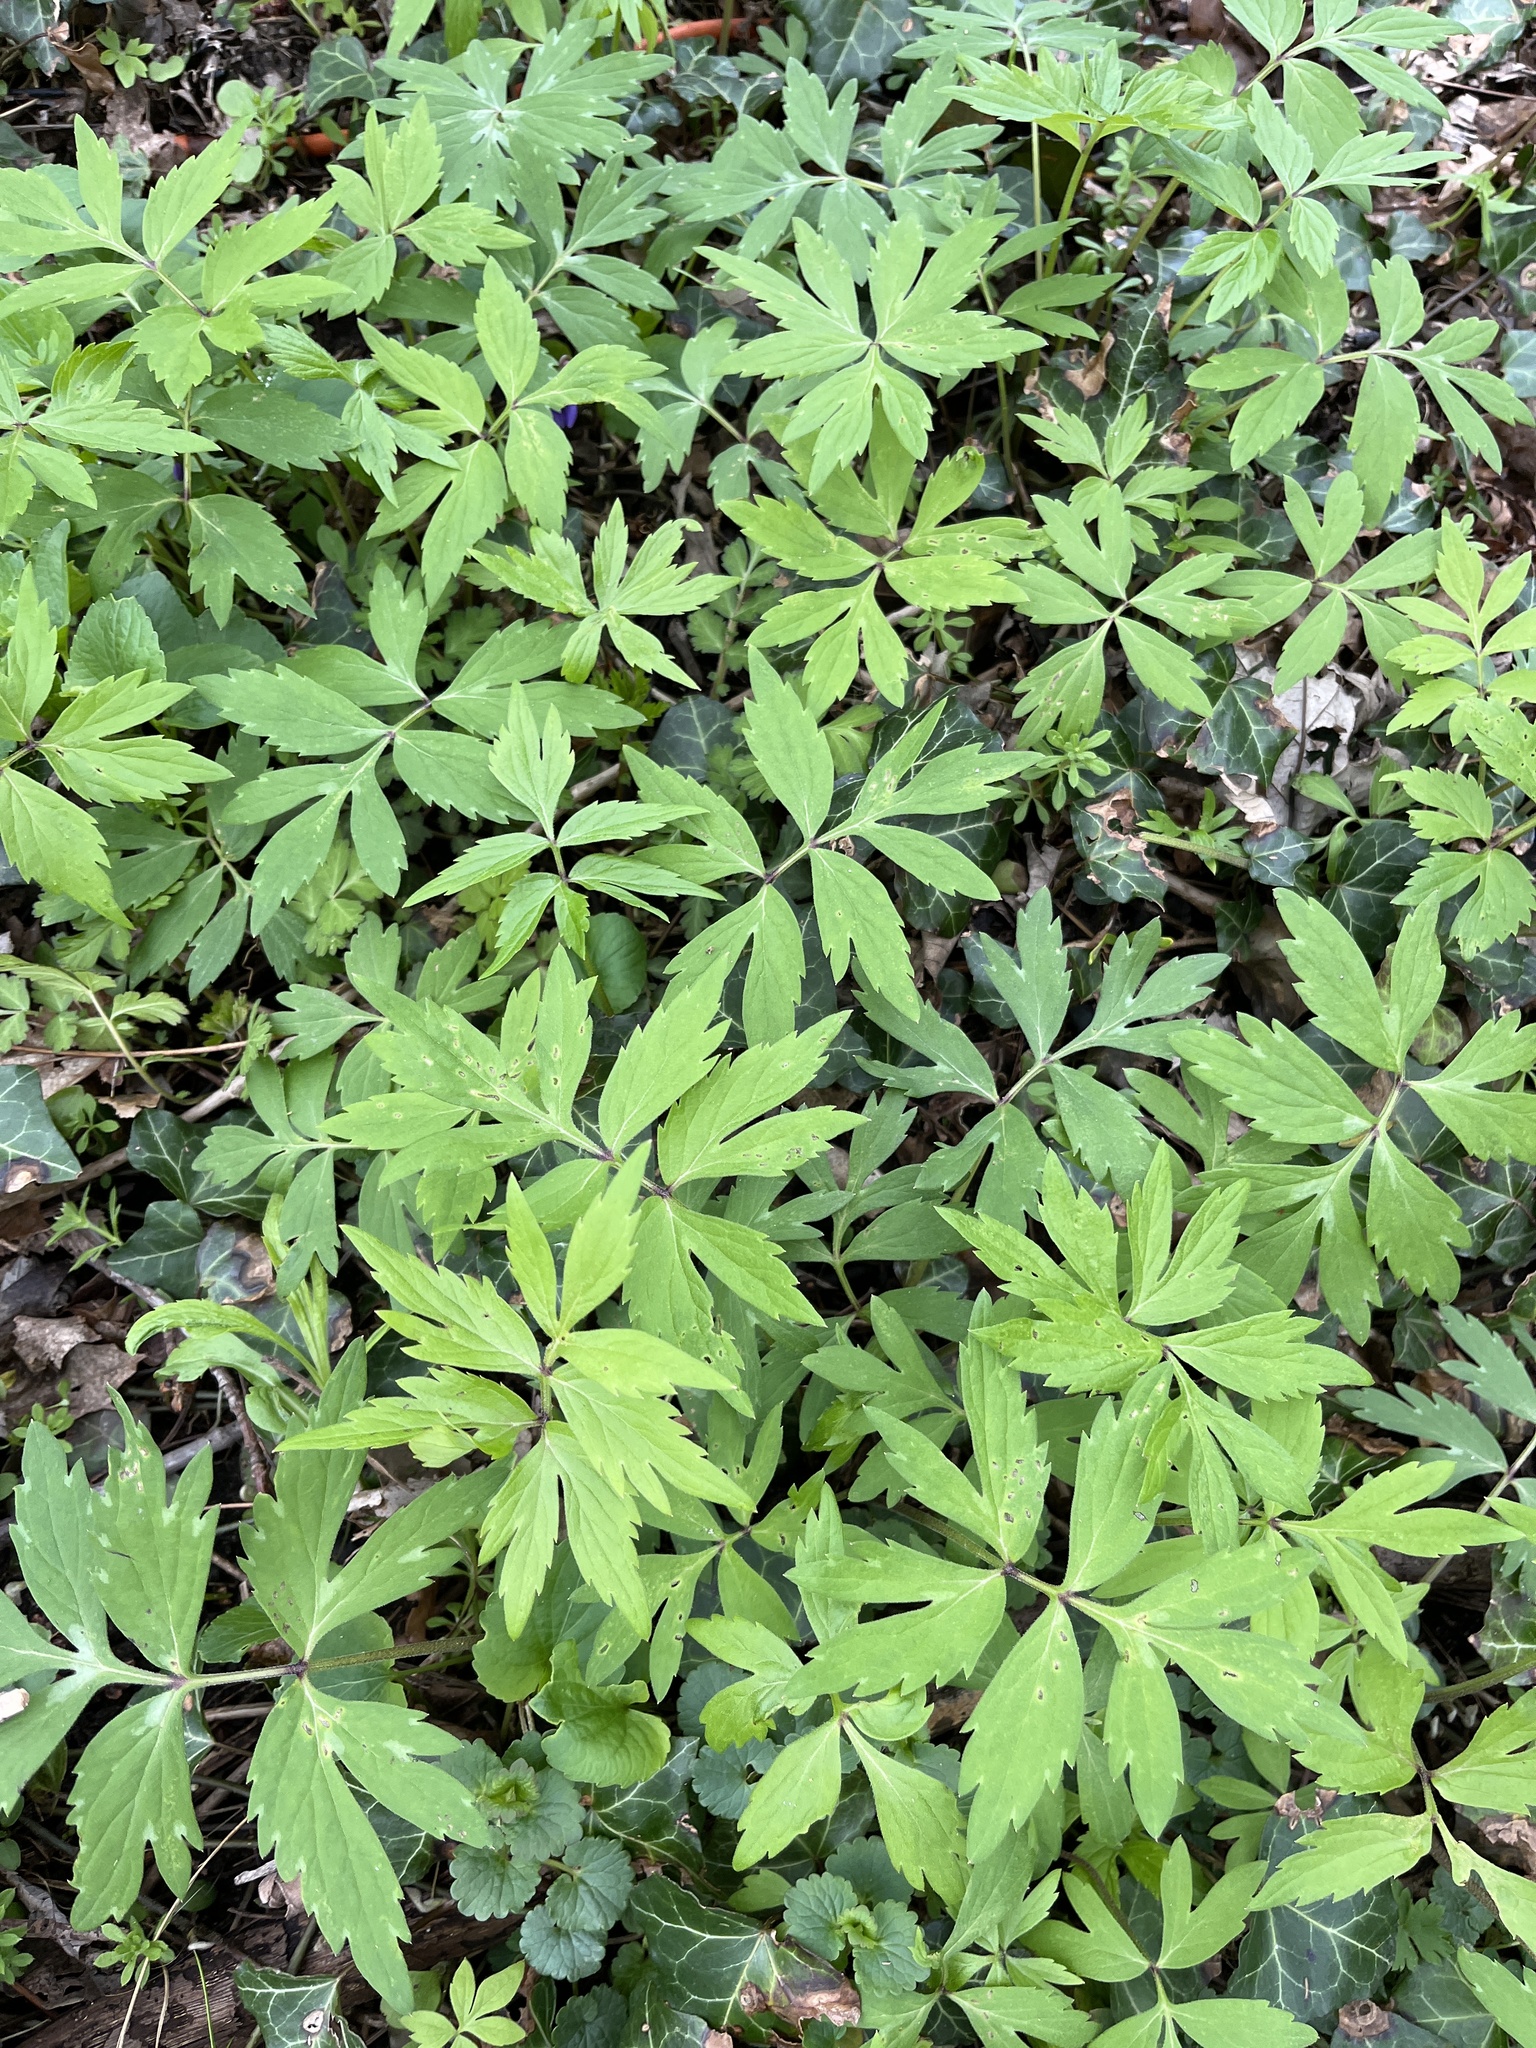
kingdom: Plantae
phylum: Tracheophyta
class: Magnoliopsida
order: Boraginales
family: Hydrophyllaceae
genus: Hydrophyllum
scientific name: Hydrophyllum virginianum
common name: Virginia waterleaf
